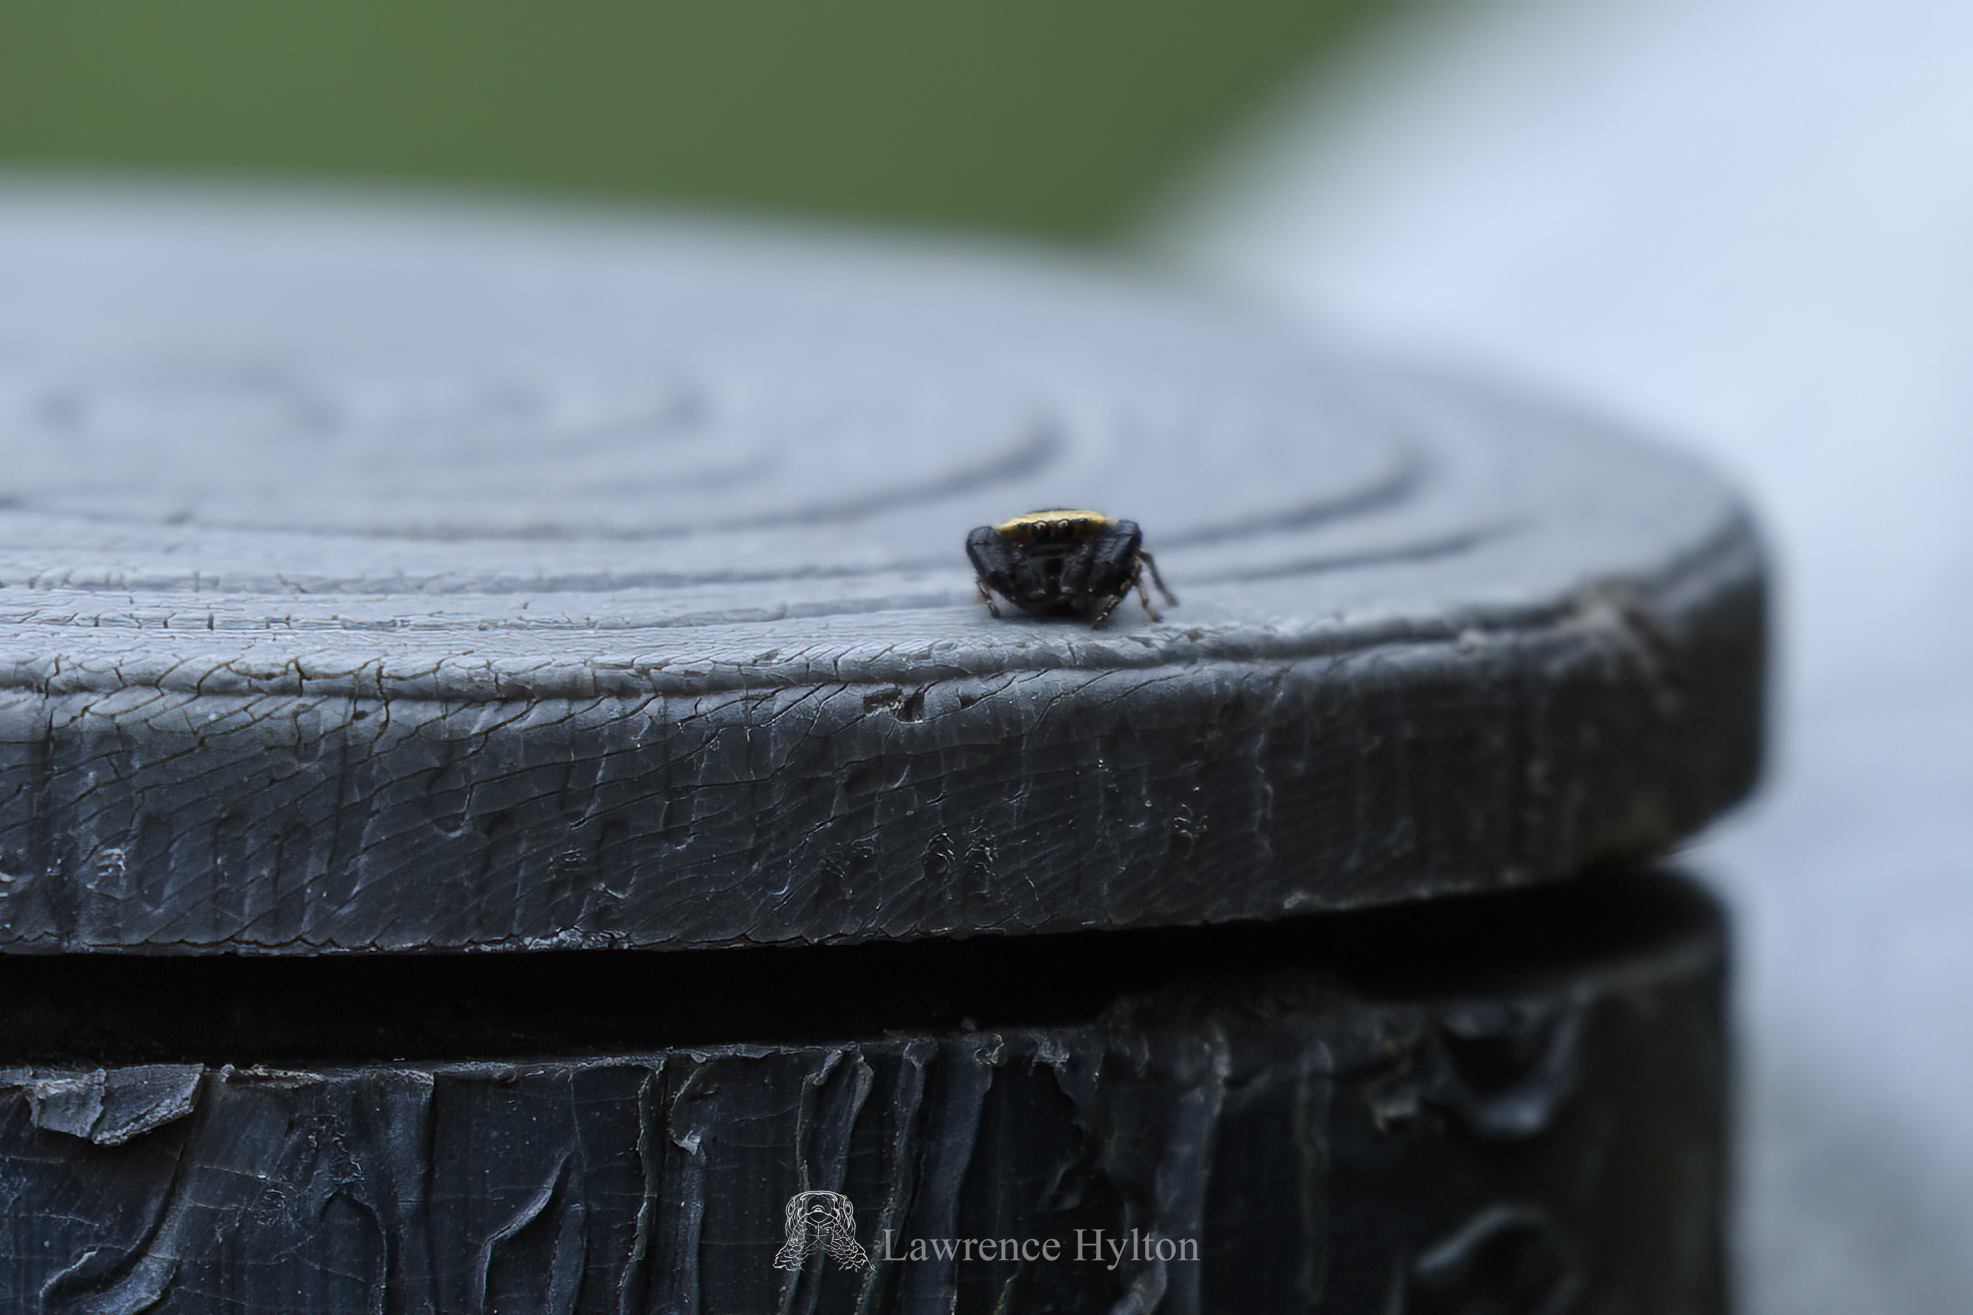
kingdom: Animalia
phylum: Arthropoda
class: Arachnida
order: Araneae
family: Salticidae
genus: Rhene
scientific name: Rhene flavicomans
